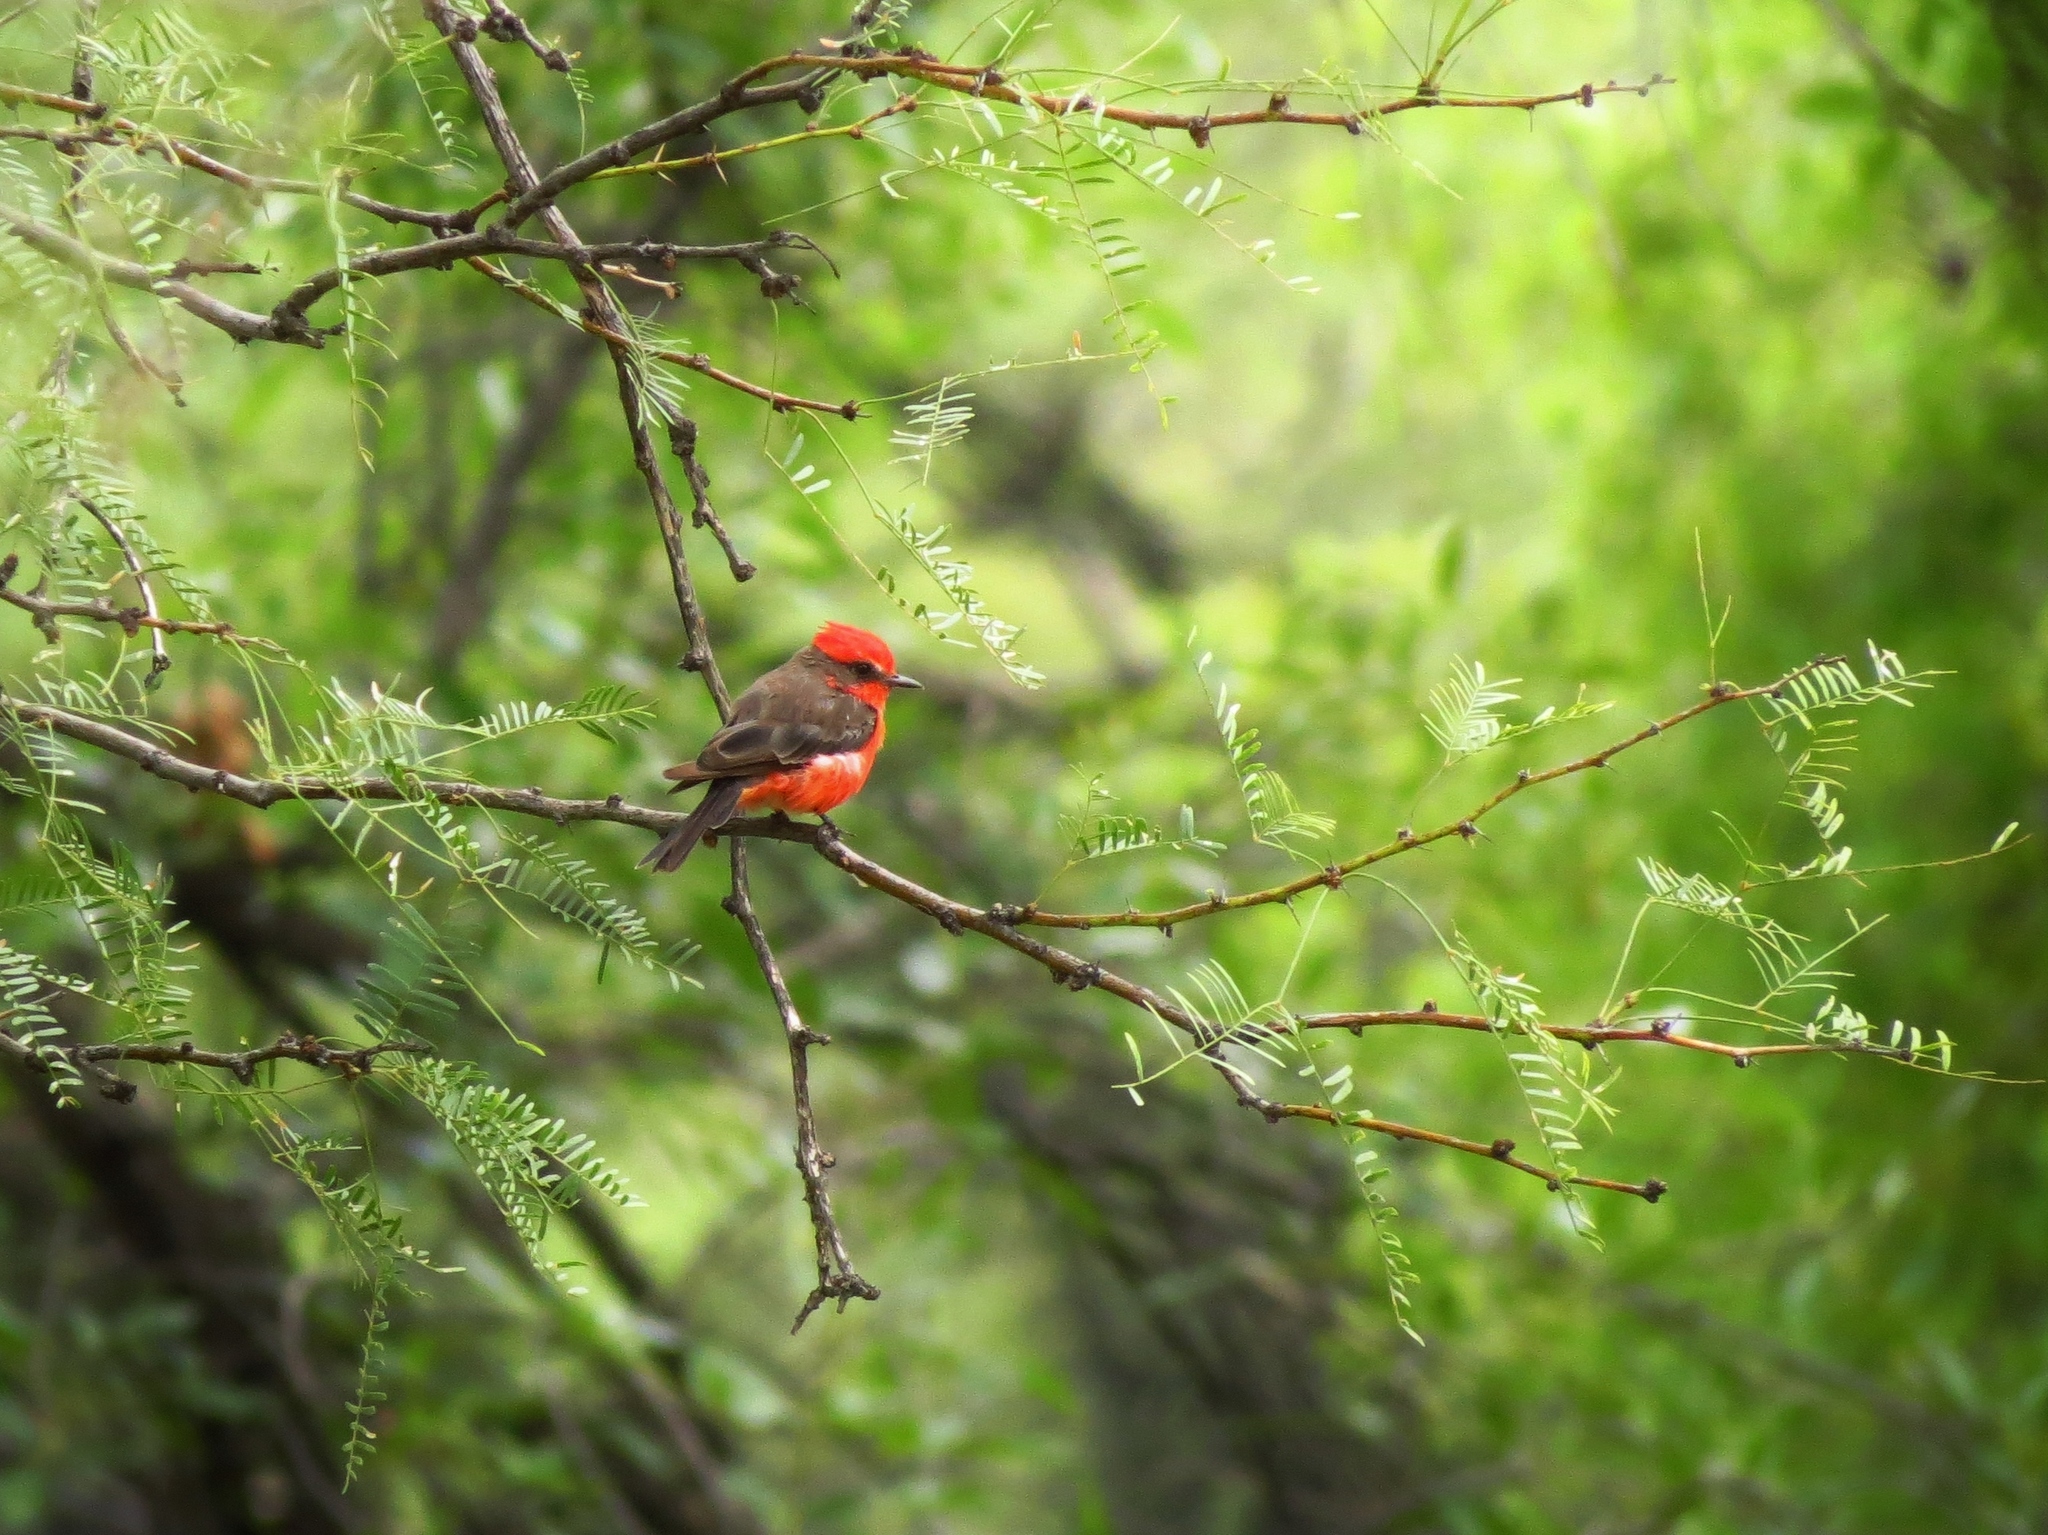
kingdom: Animalia
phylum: Chordata
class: Aves
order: Passeriformes
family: Tyrannidae
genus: Pyrocephalus
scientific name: Pyrocephalus rubinus
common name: Vermilion flycatcher
